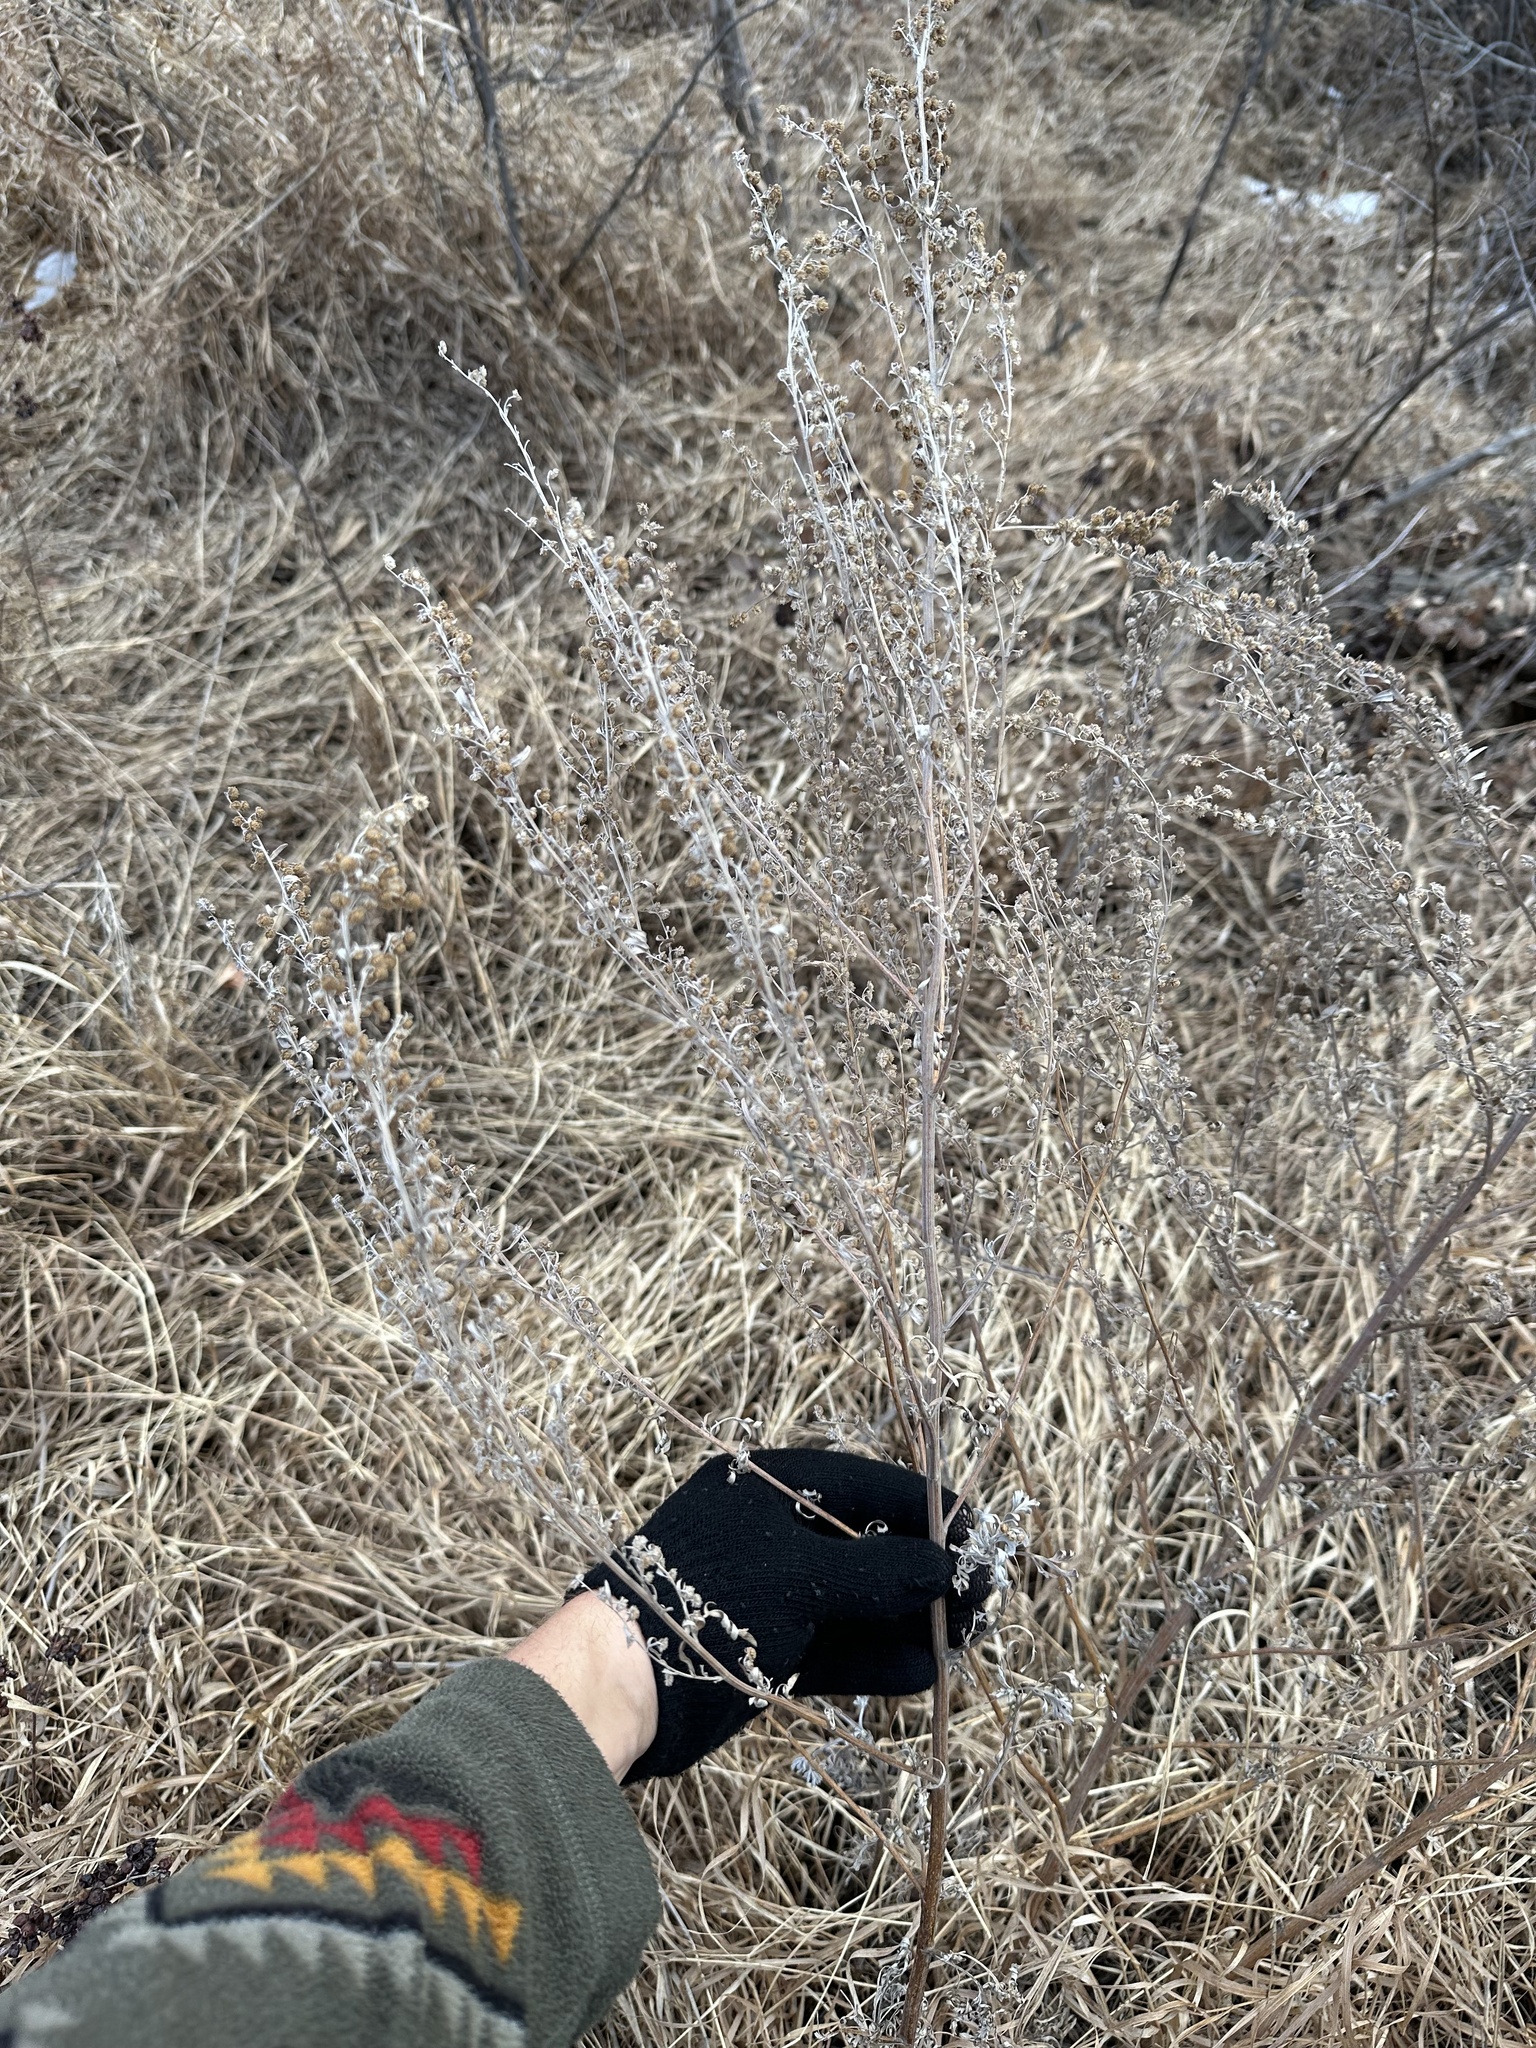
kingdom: Plantae
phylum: Tracheophyta
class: Magnoliopsida
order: Asterales
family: Asteraceae
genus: Artemisia
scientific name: Artemisia absinthium
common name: Wormwood
